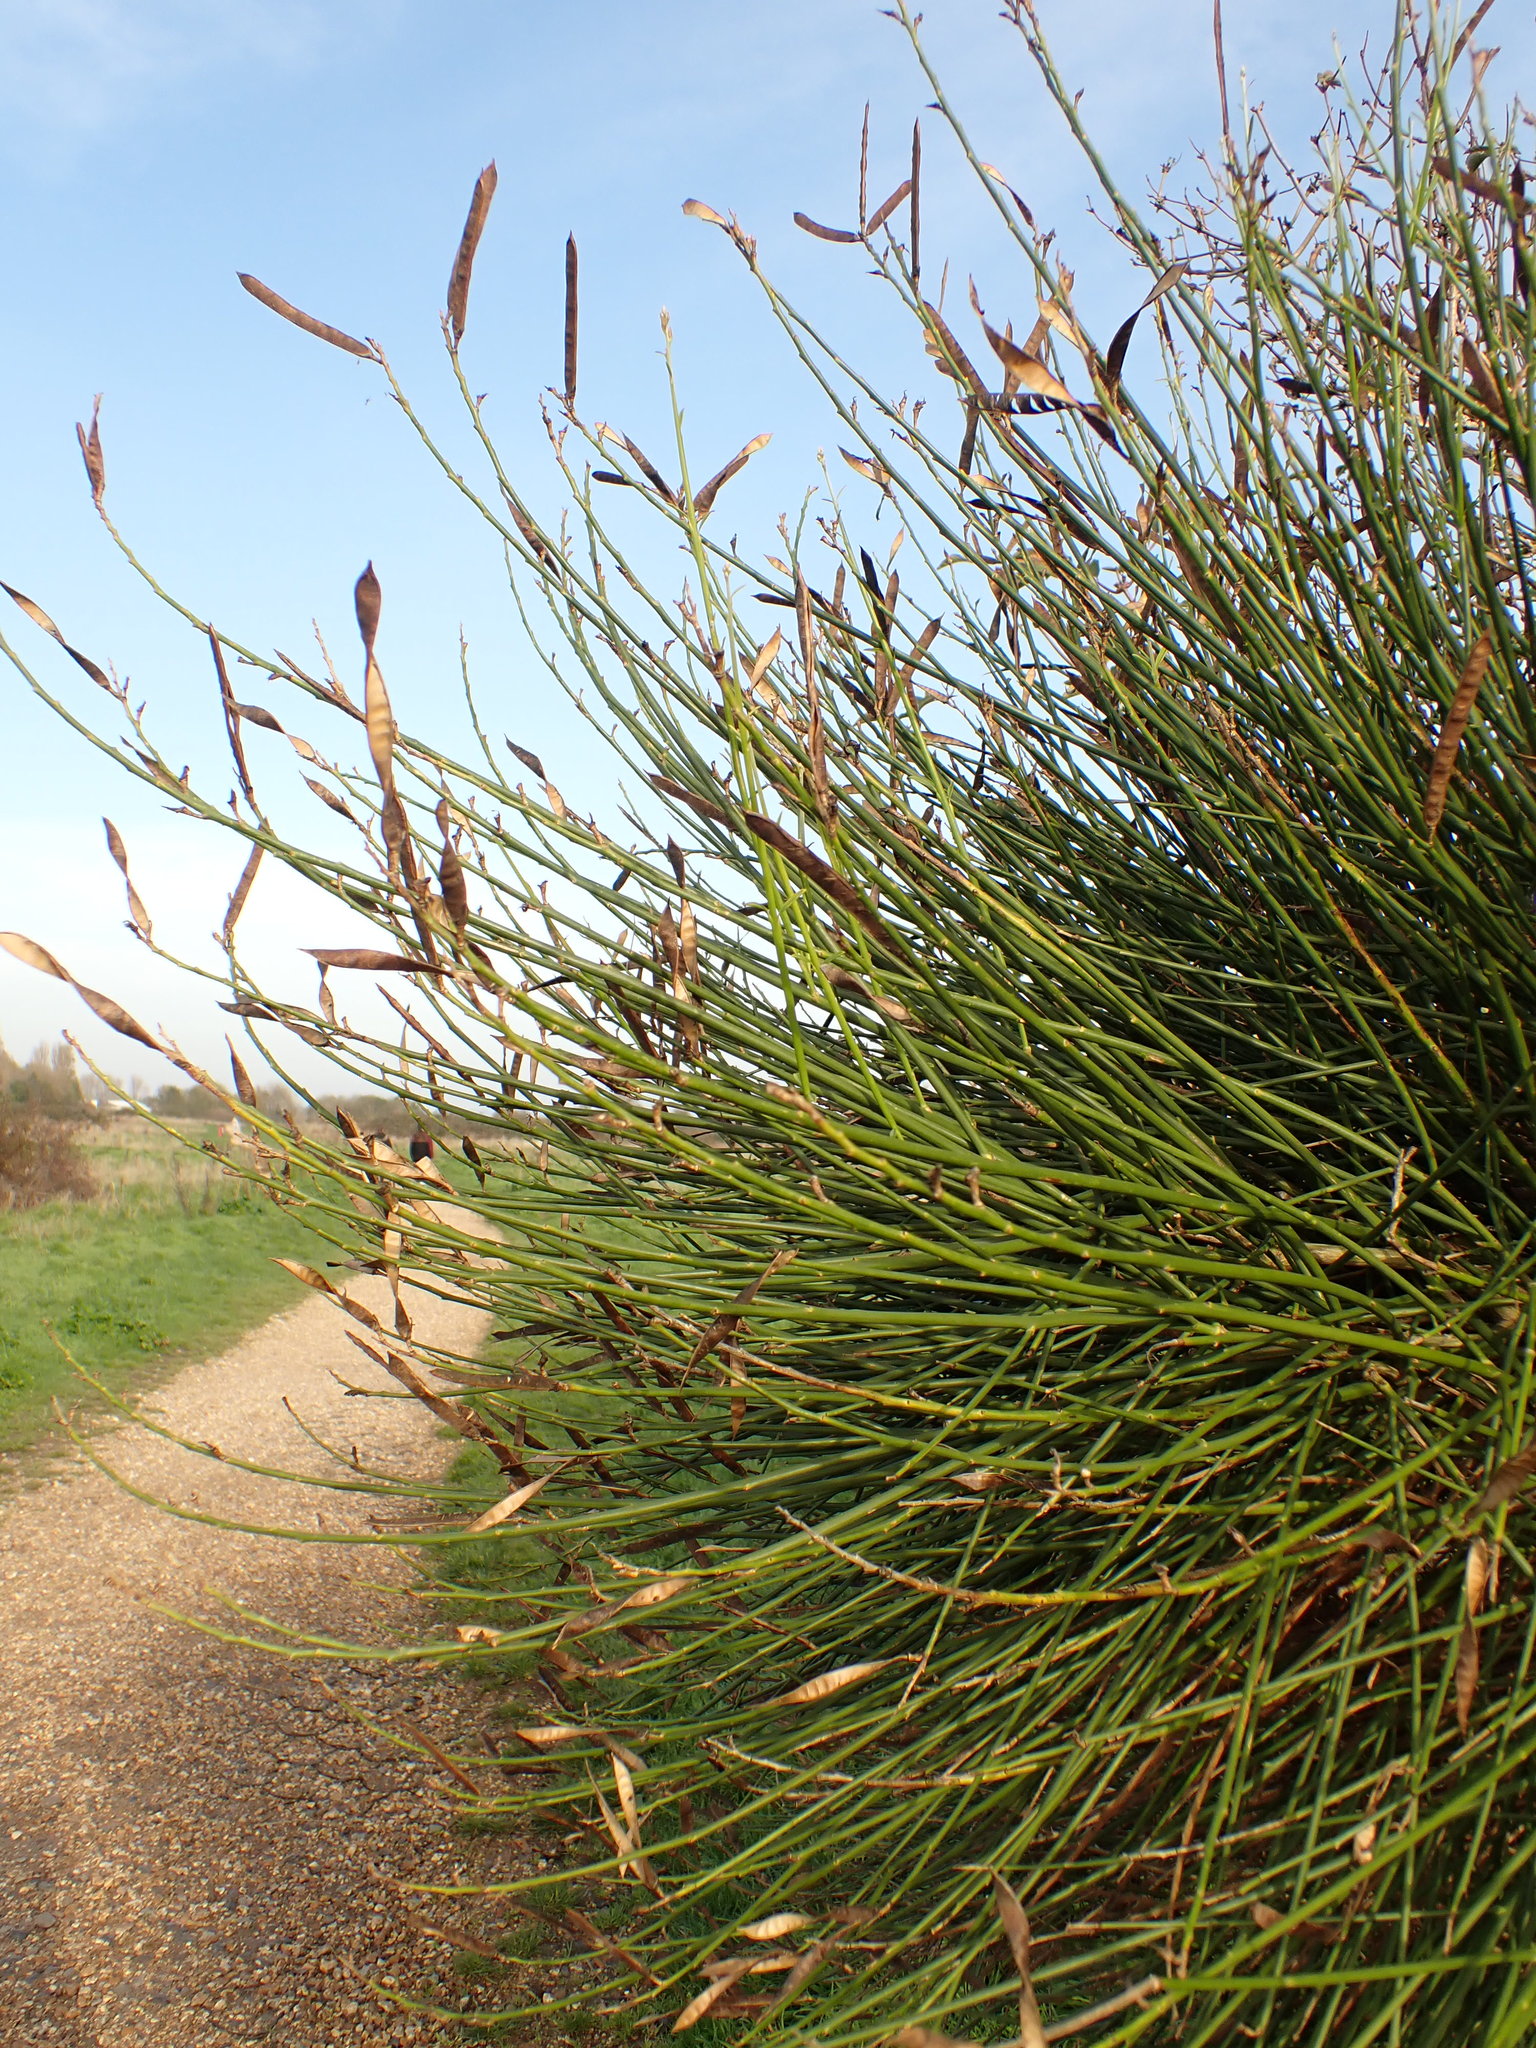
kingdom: Plantae
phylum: Tracheophyta
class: Magnoliopsida
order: Fabales
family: Fabaceae
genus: Spartium
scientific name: Spartium junceum
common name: Spanish broom
